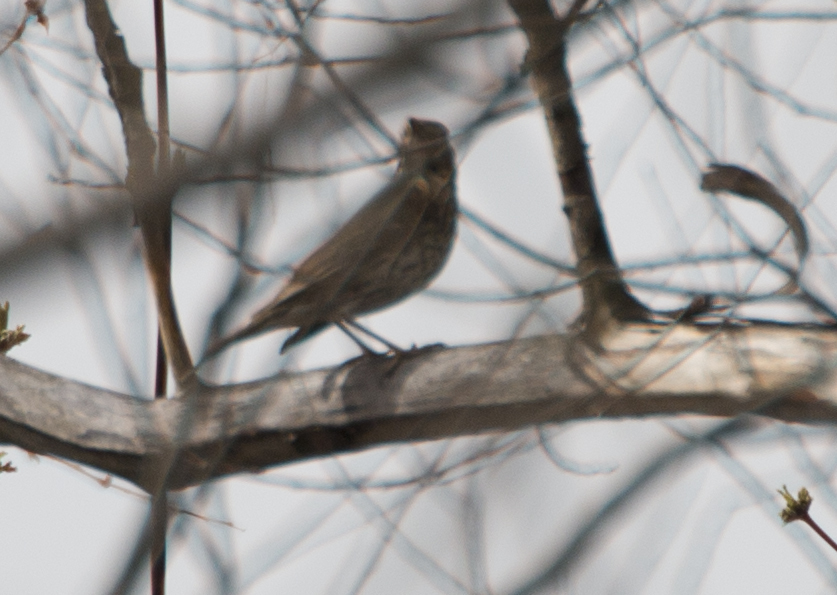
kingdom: Animalia
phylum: Chordata
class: Aves
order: Passeriformes
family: Turdidae
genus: Turdus
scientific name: Turdus philomelos
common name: Song thrush
